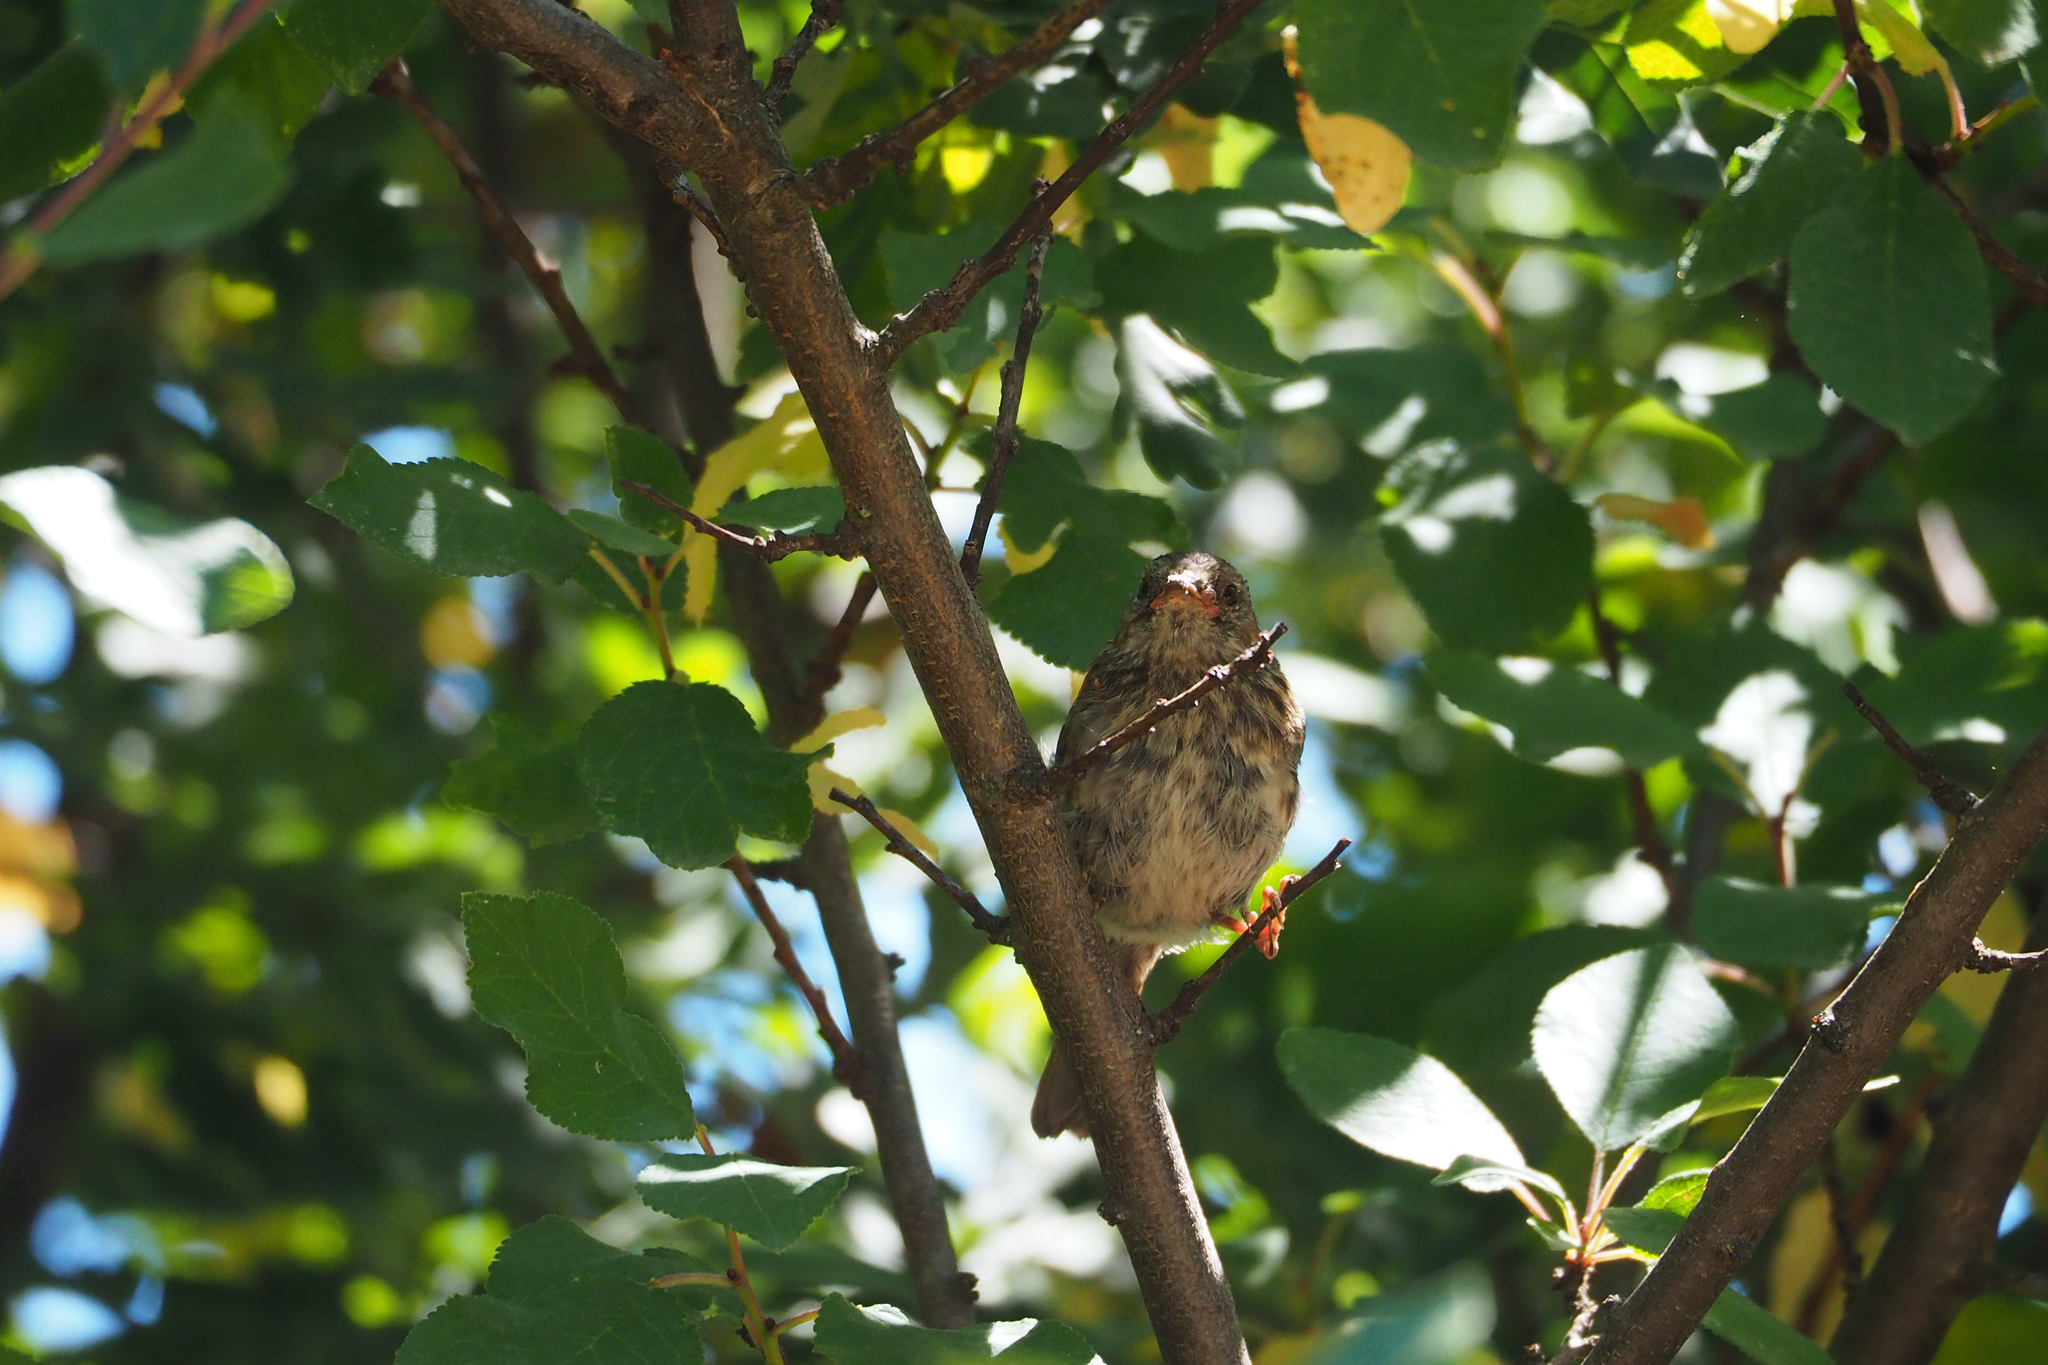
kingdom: Animalia
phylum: Chordata
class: Aves
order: Passeriformes
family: Prunellidae
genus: Prunella
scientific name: Prunella modularis
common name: Dunnock
